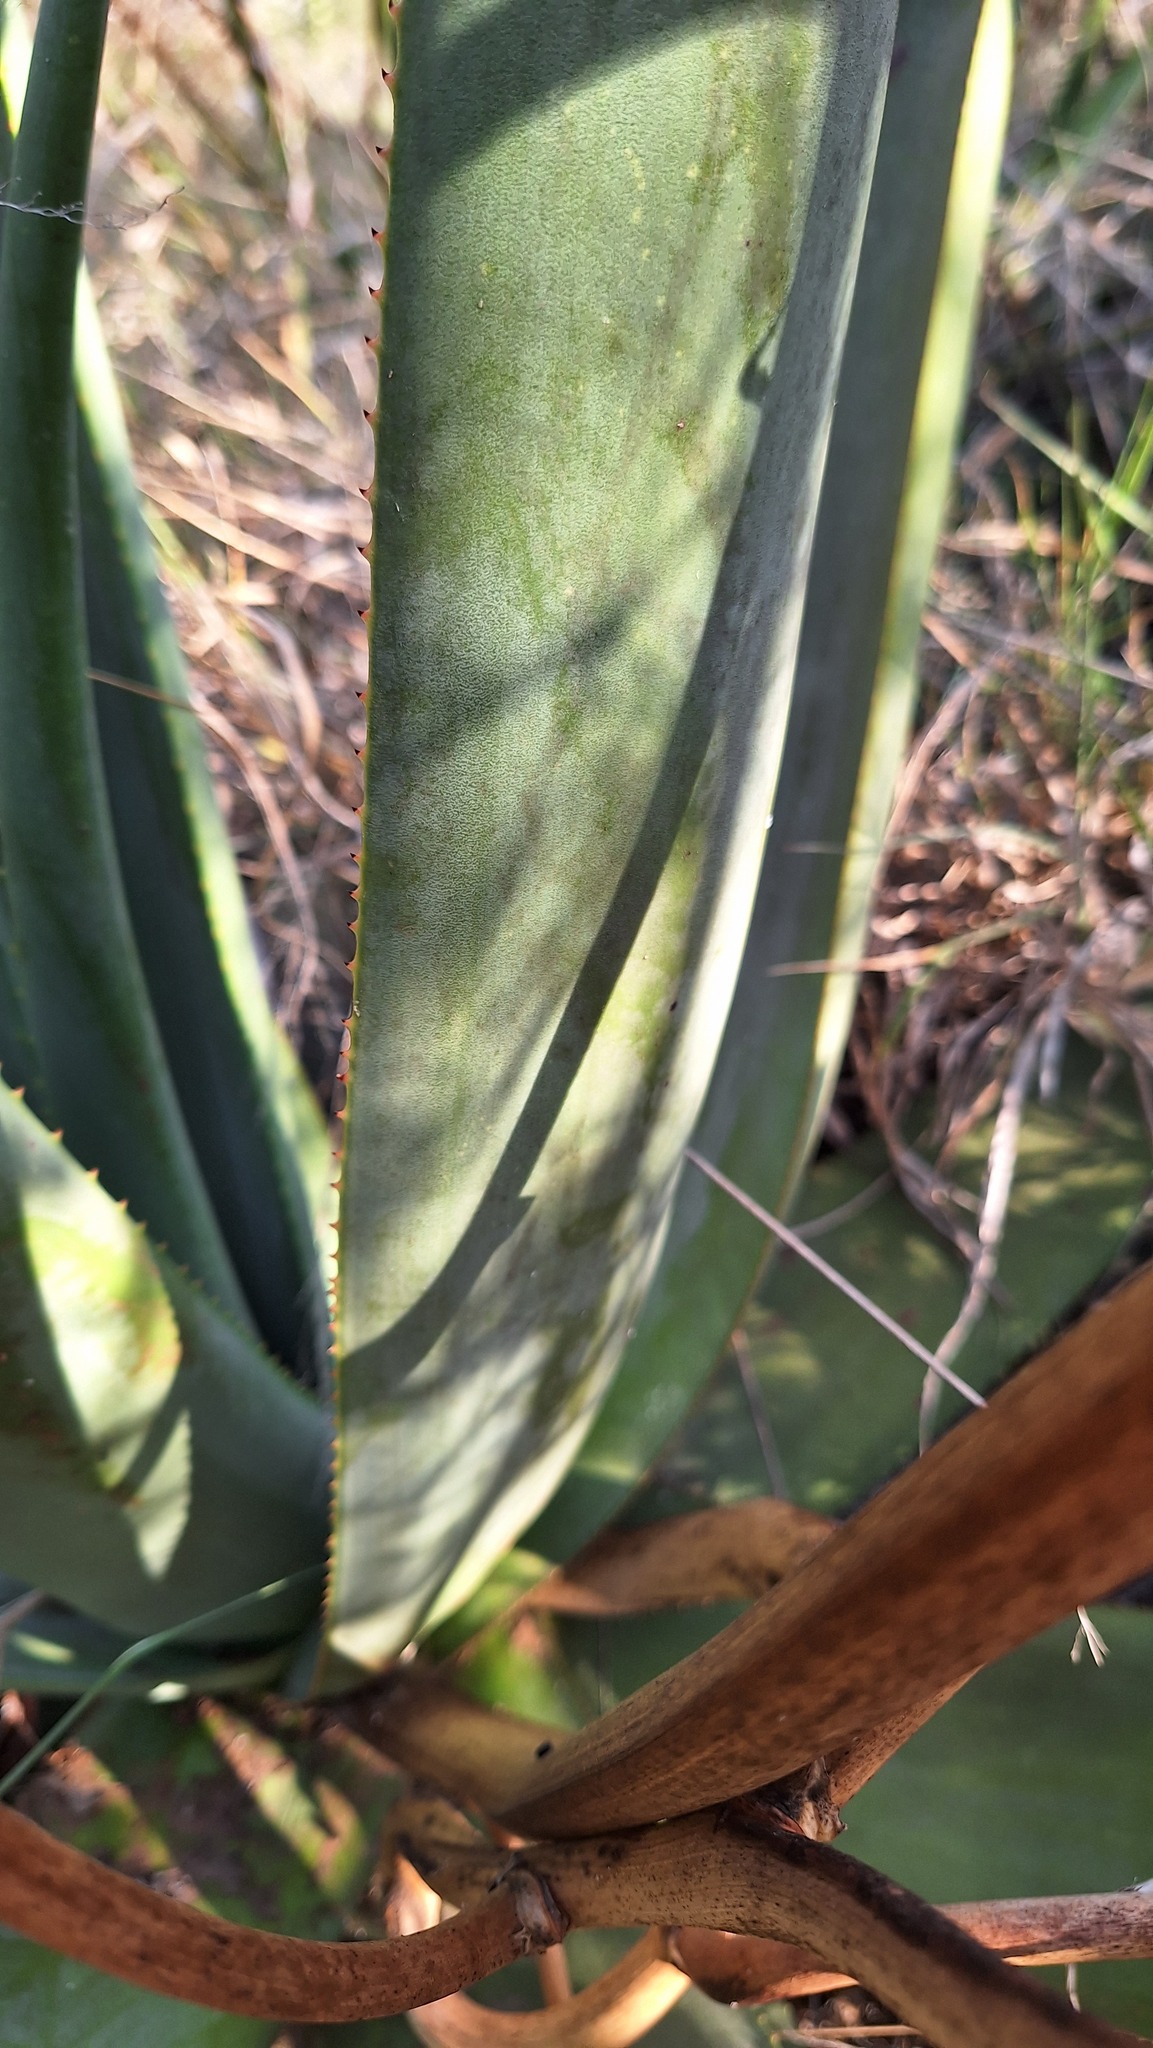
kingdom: Plantae
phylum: Tracheophyta
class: Liliopsida
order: Asparagales
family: Asphodelaceae
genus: Aloe
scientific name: Aloe pienaarii
